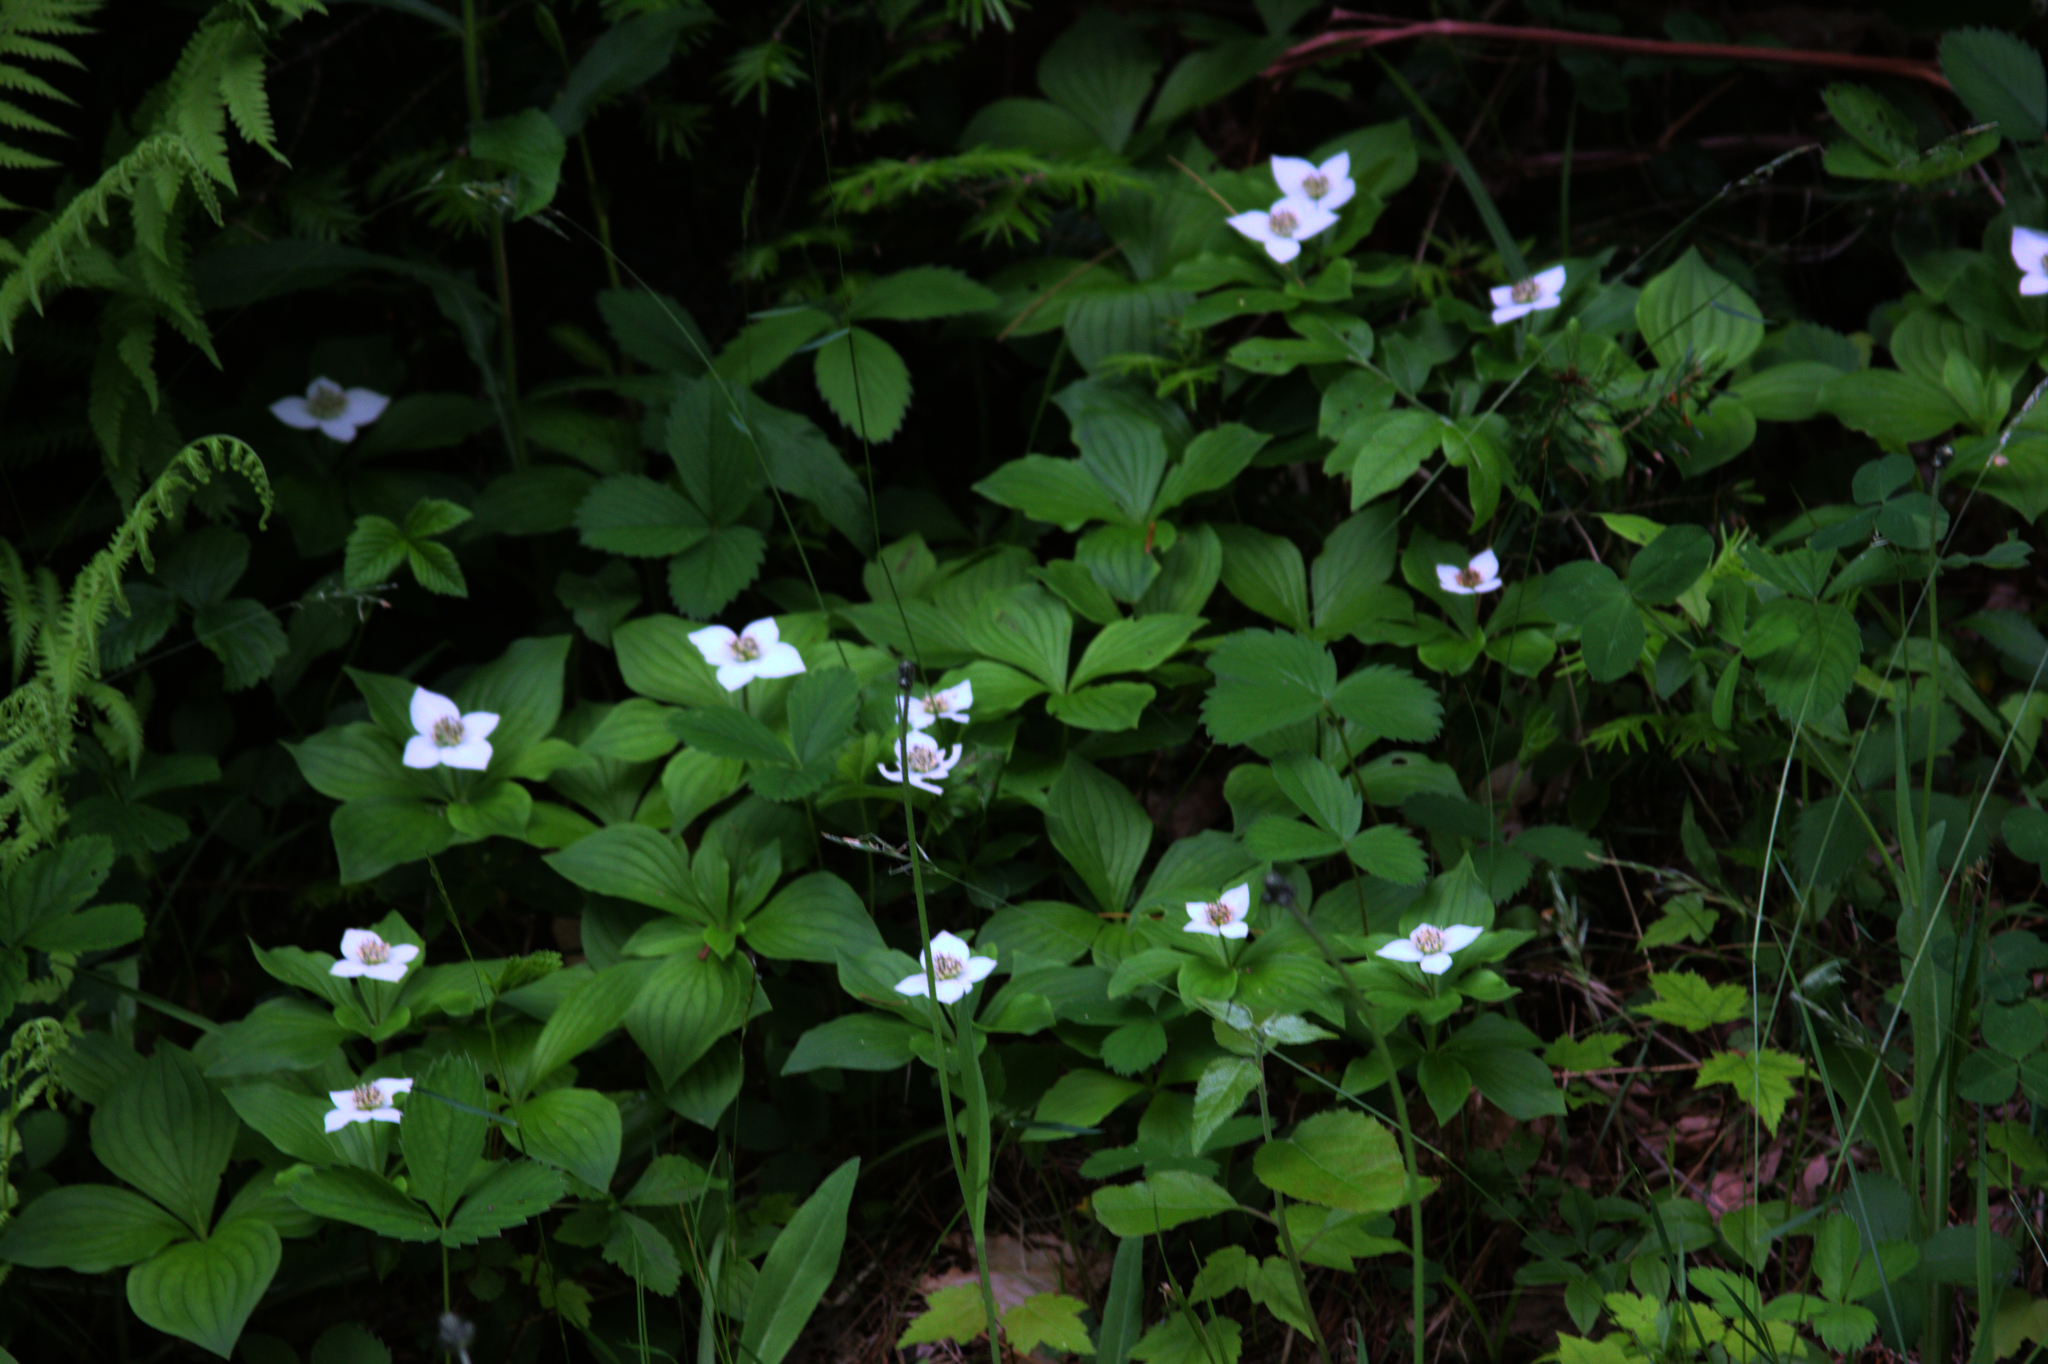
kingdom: Plantae
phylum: Tracheophyta
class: Magnoliopsida
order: Cornales
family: Cornaceae
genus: Cornus
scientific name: Cornus canadensis
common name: Creeping dogwood
